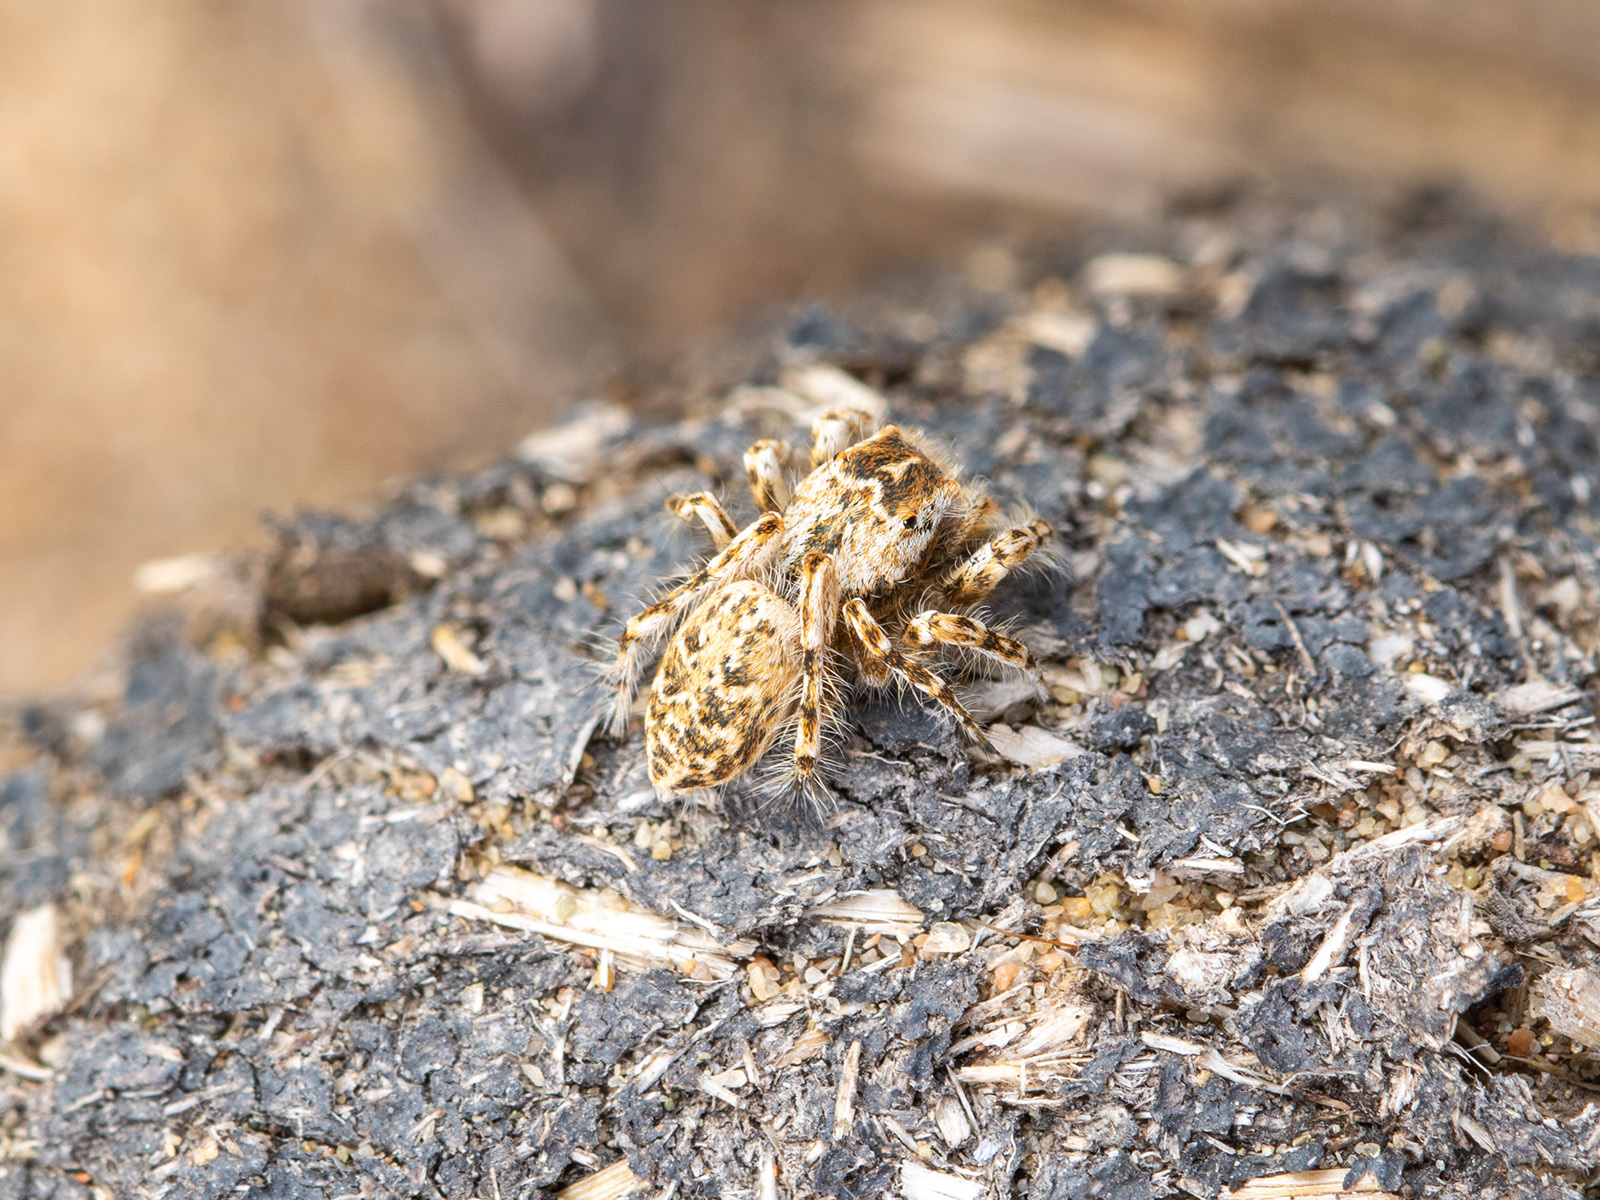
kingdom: Animalia
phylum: Arthropoda
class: Arachnida
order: Araneae
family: Salticidae
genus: Yllenus
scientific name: Yllenus turkestanicus
